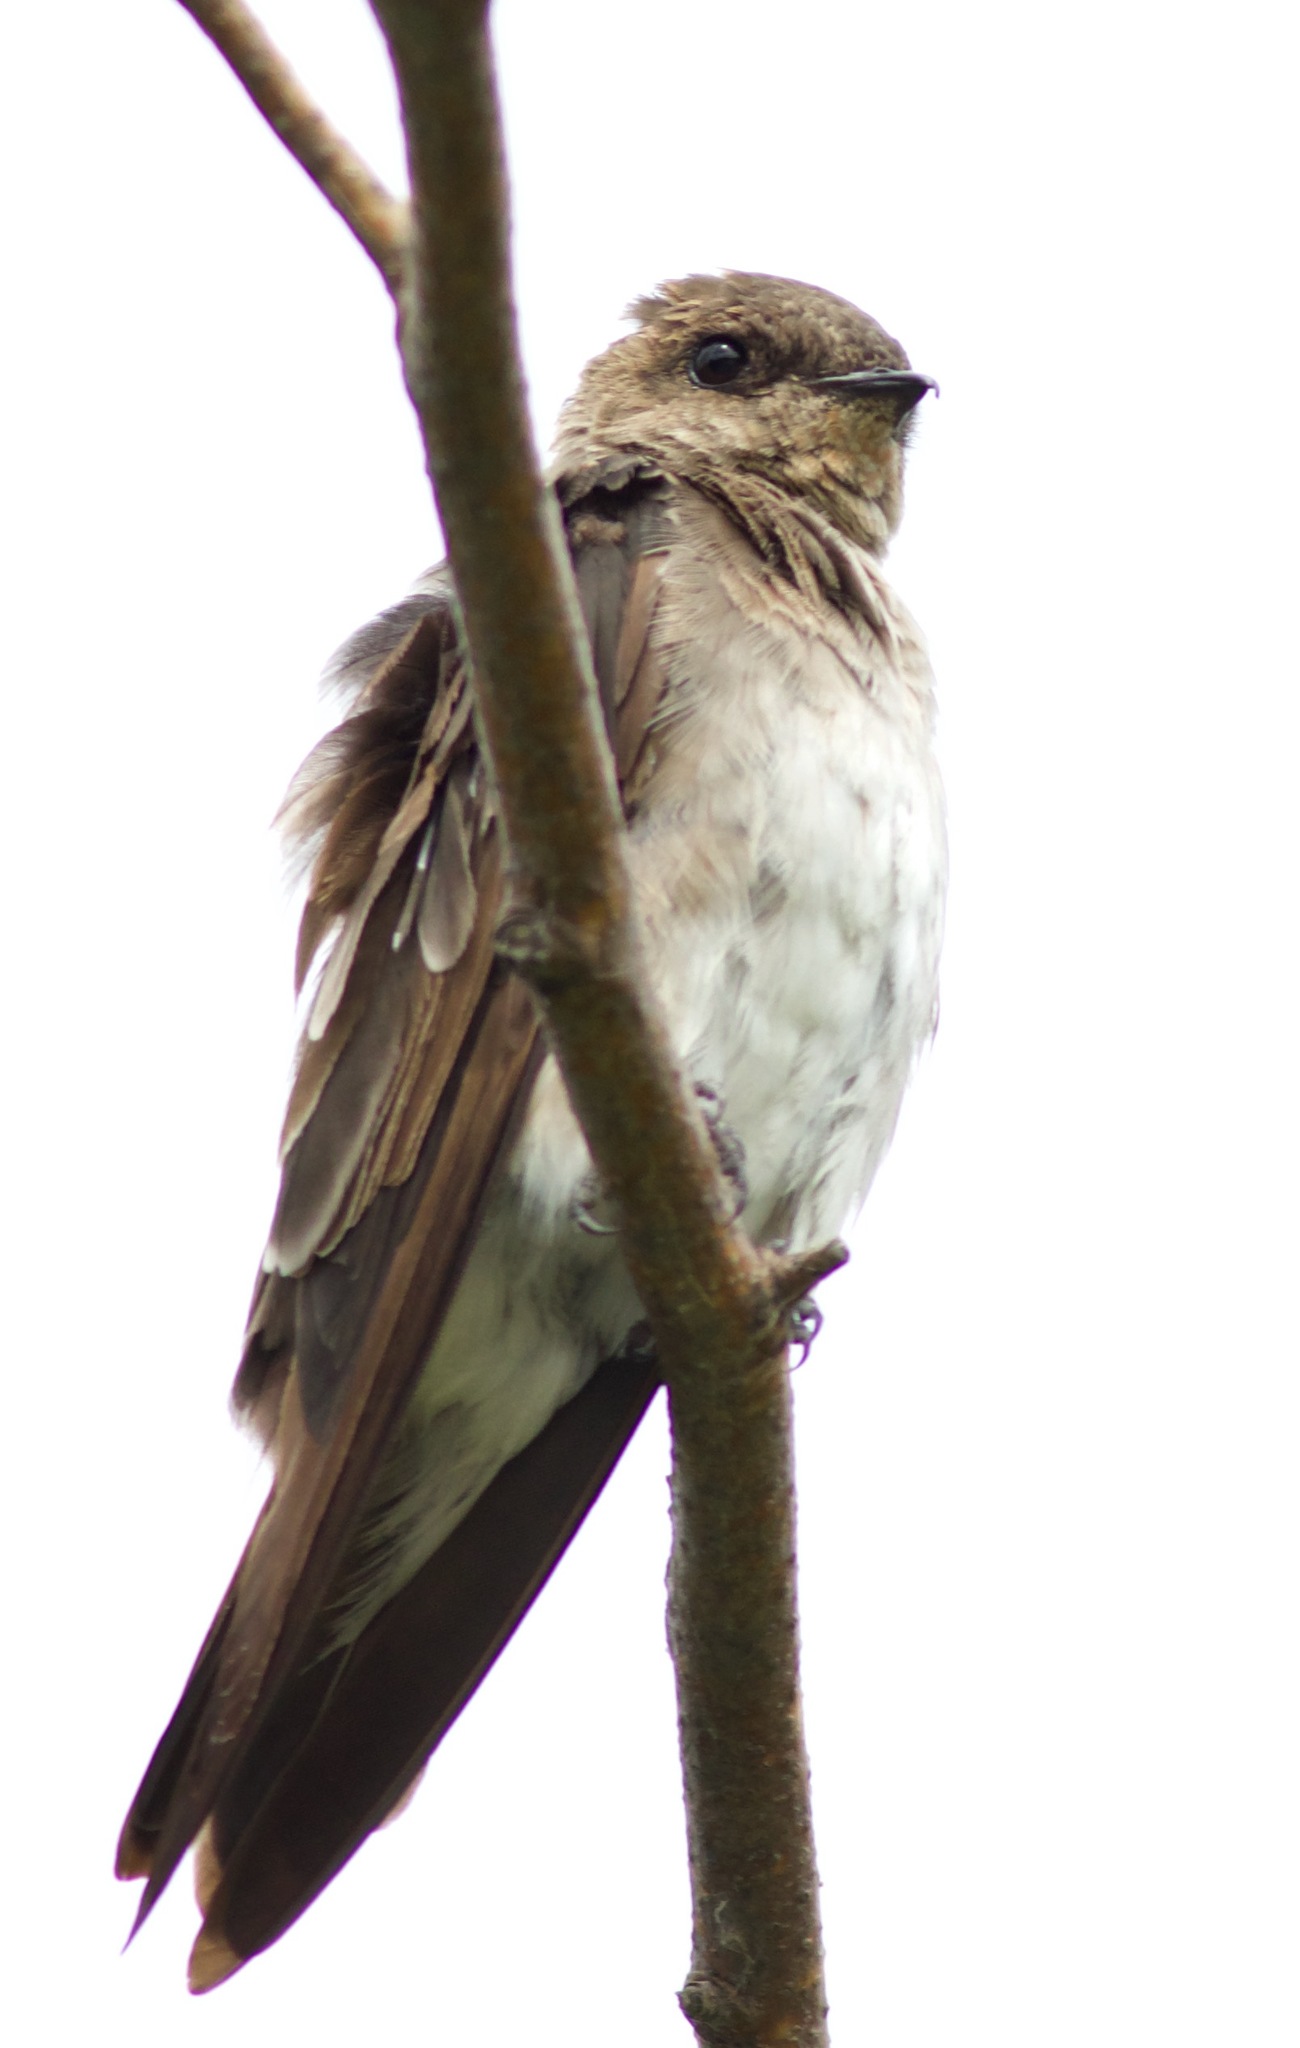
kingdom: Animalia
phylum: Chordata
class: Aves
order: Passeriformes
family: Hirundinidae
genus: Stelgidopteryx
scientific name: Stelgidopteryx serripennis
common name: Northern rough-winged swallow
